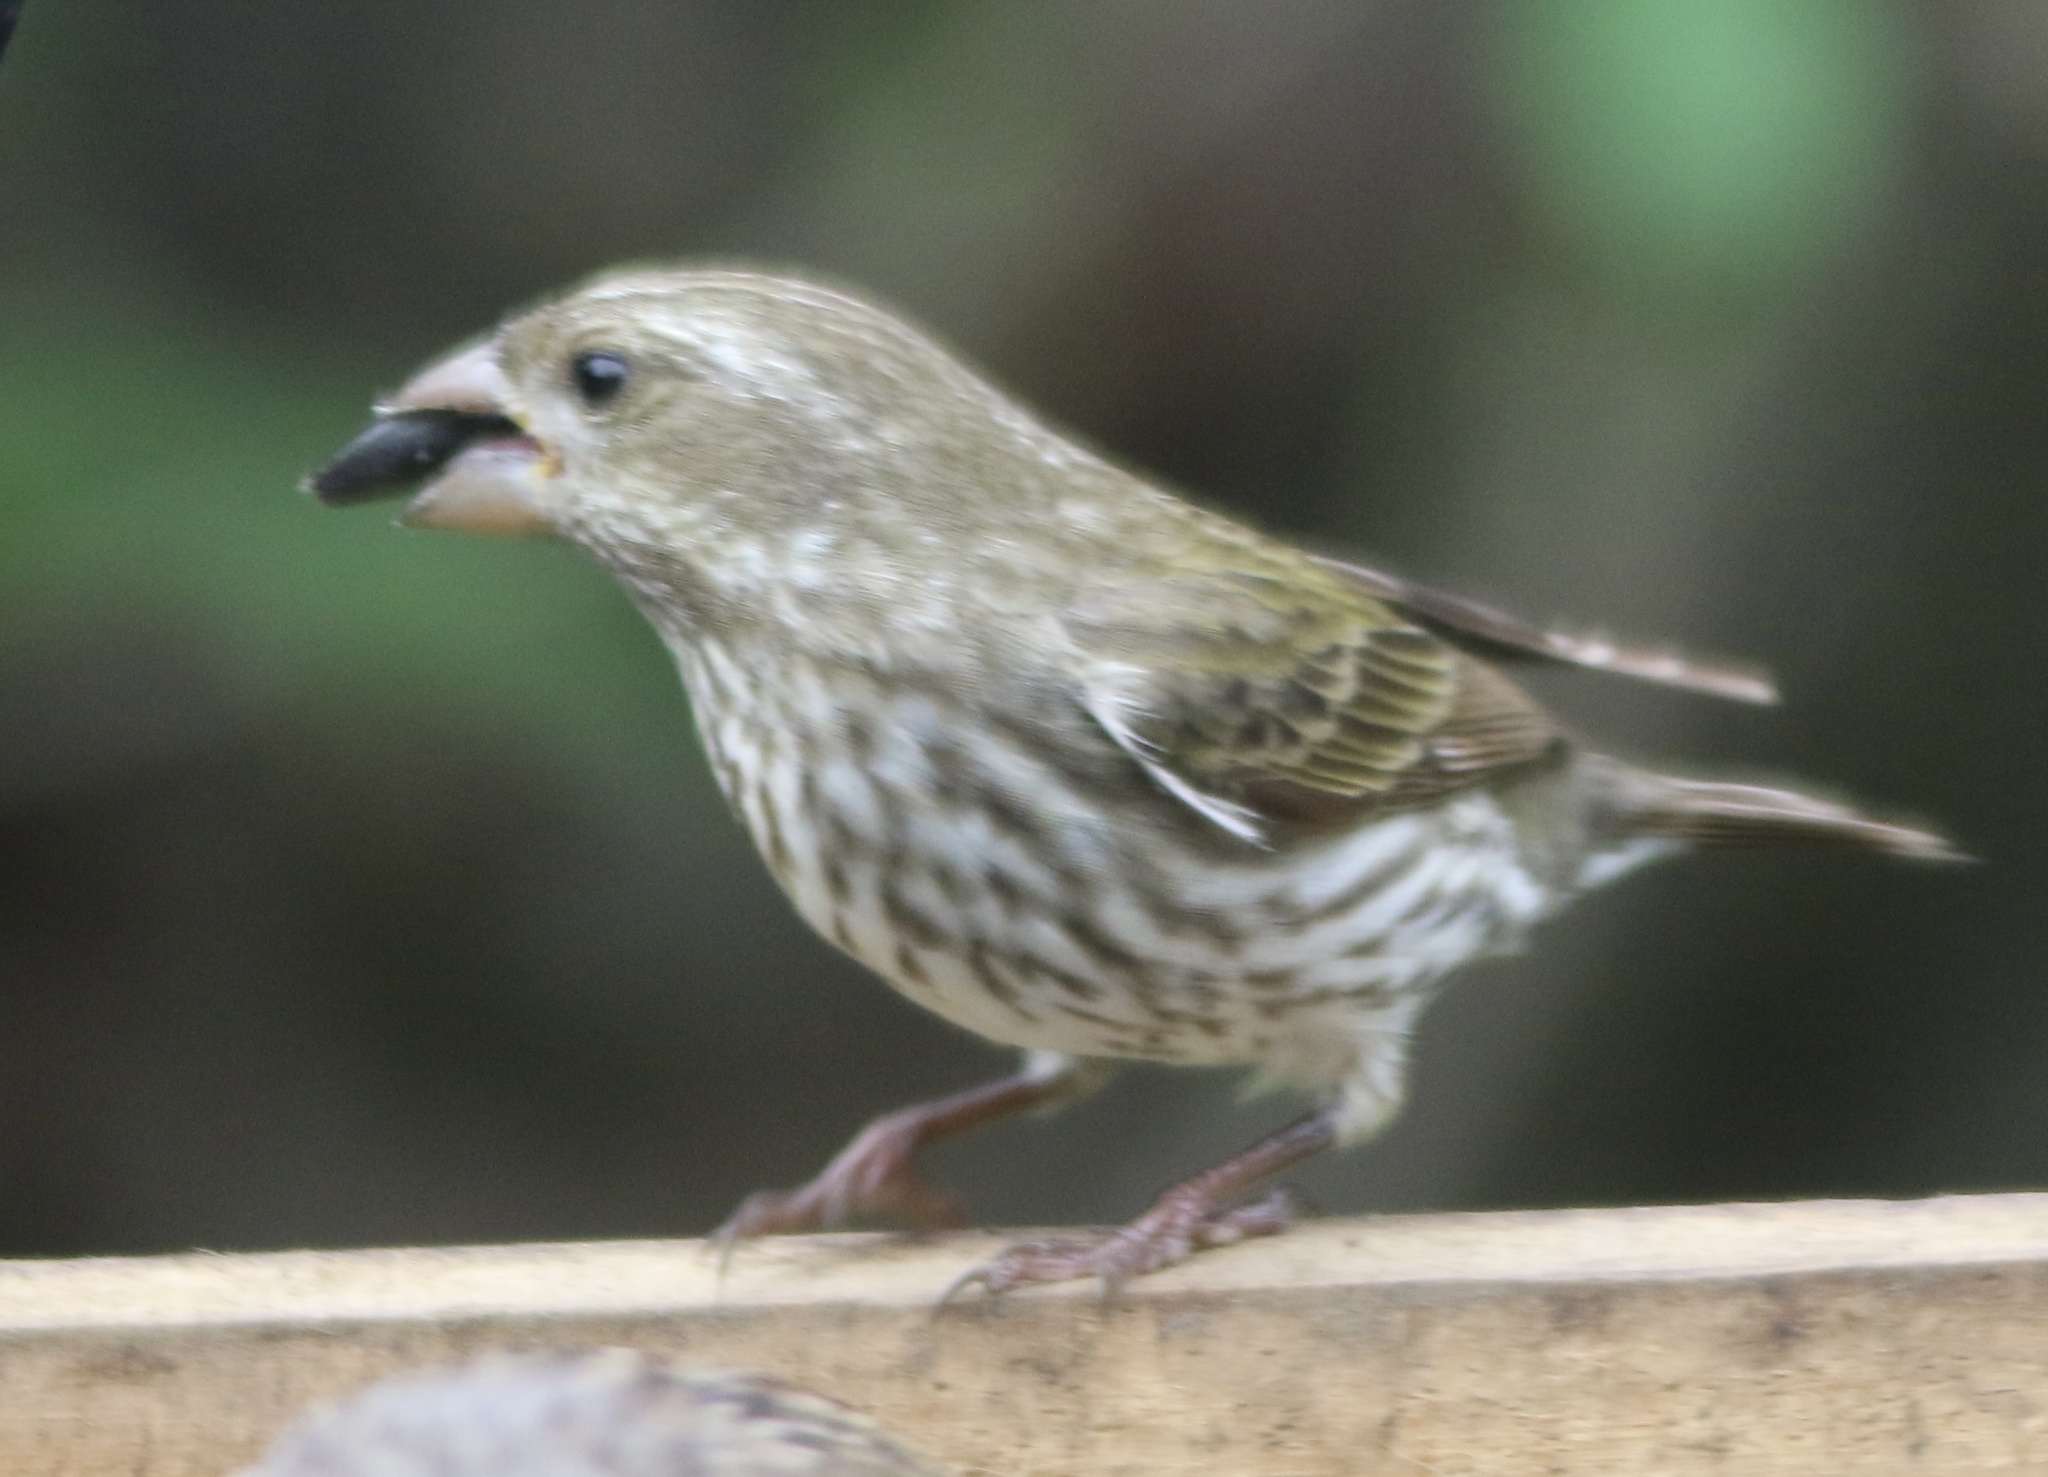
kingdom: Animalia
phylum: Chordata
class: Aves
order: Passeriformes
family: Fringillidae
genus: Haemorhous
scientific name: Haemorhous purpureus
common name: Purple finch
